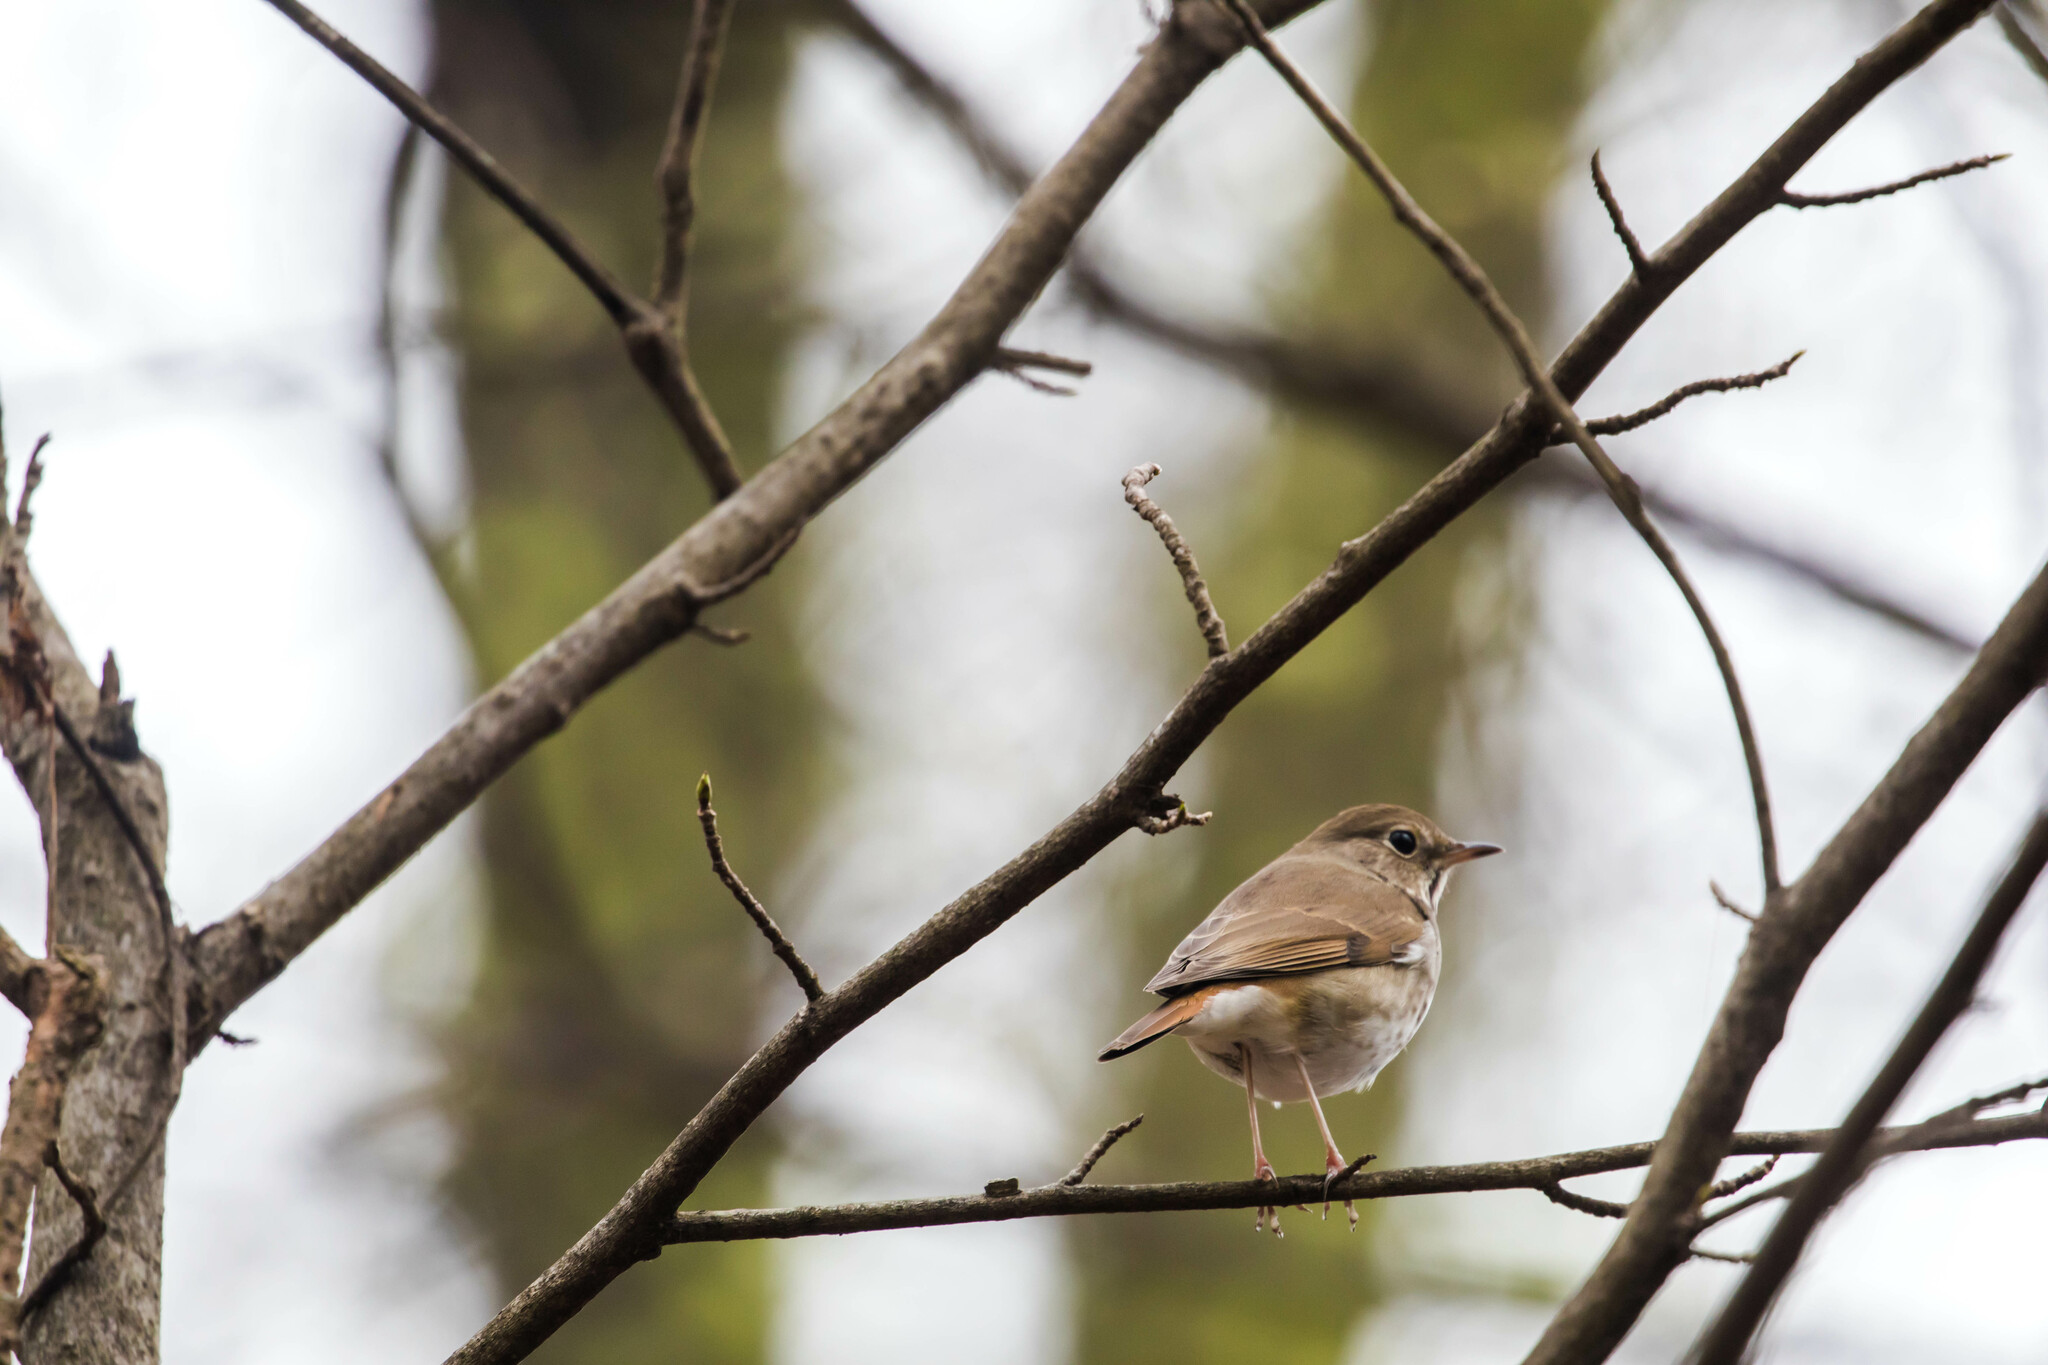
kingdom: Animalia
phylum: Chordata
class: Aves
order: Passeriformes
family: Turdidae
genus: Catharus
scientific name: Catharus guttatus
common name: Hermit thrush
